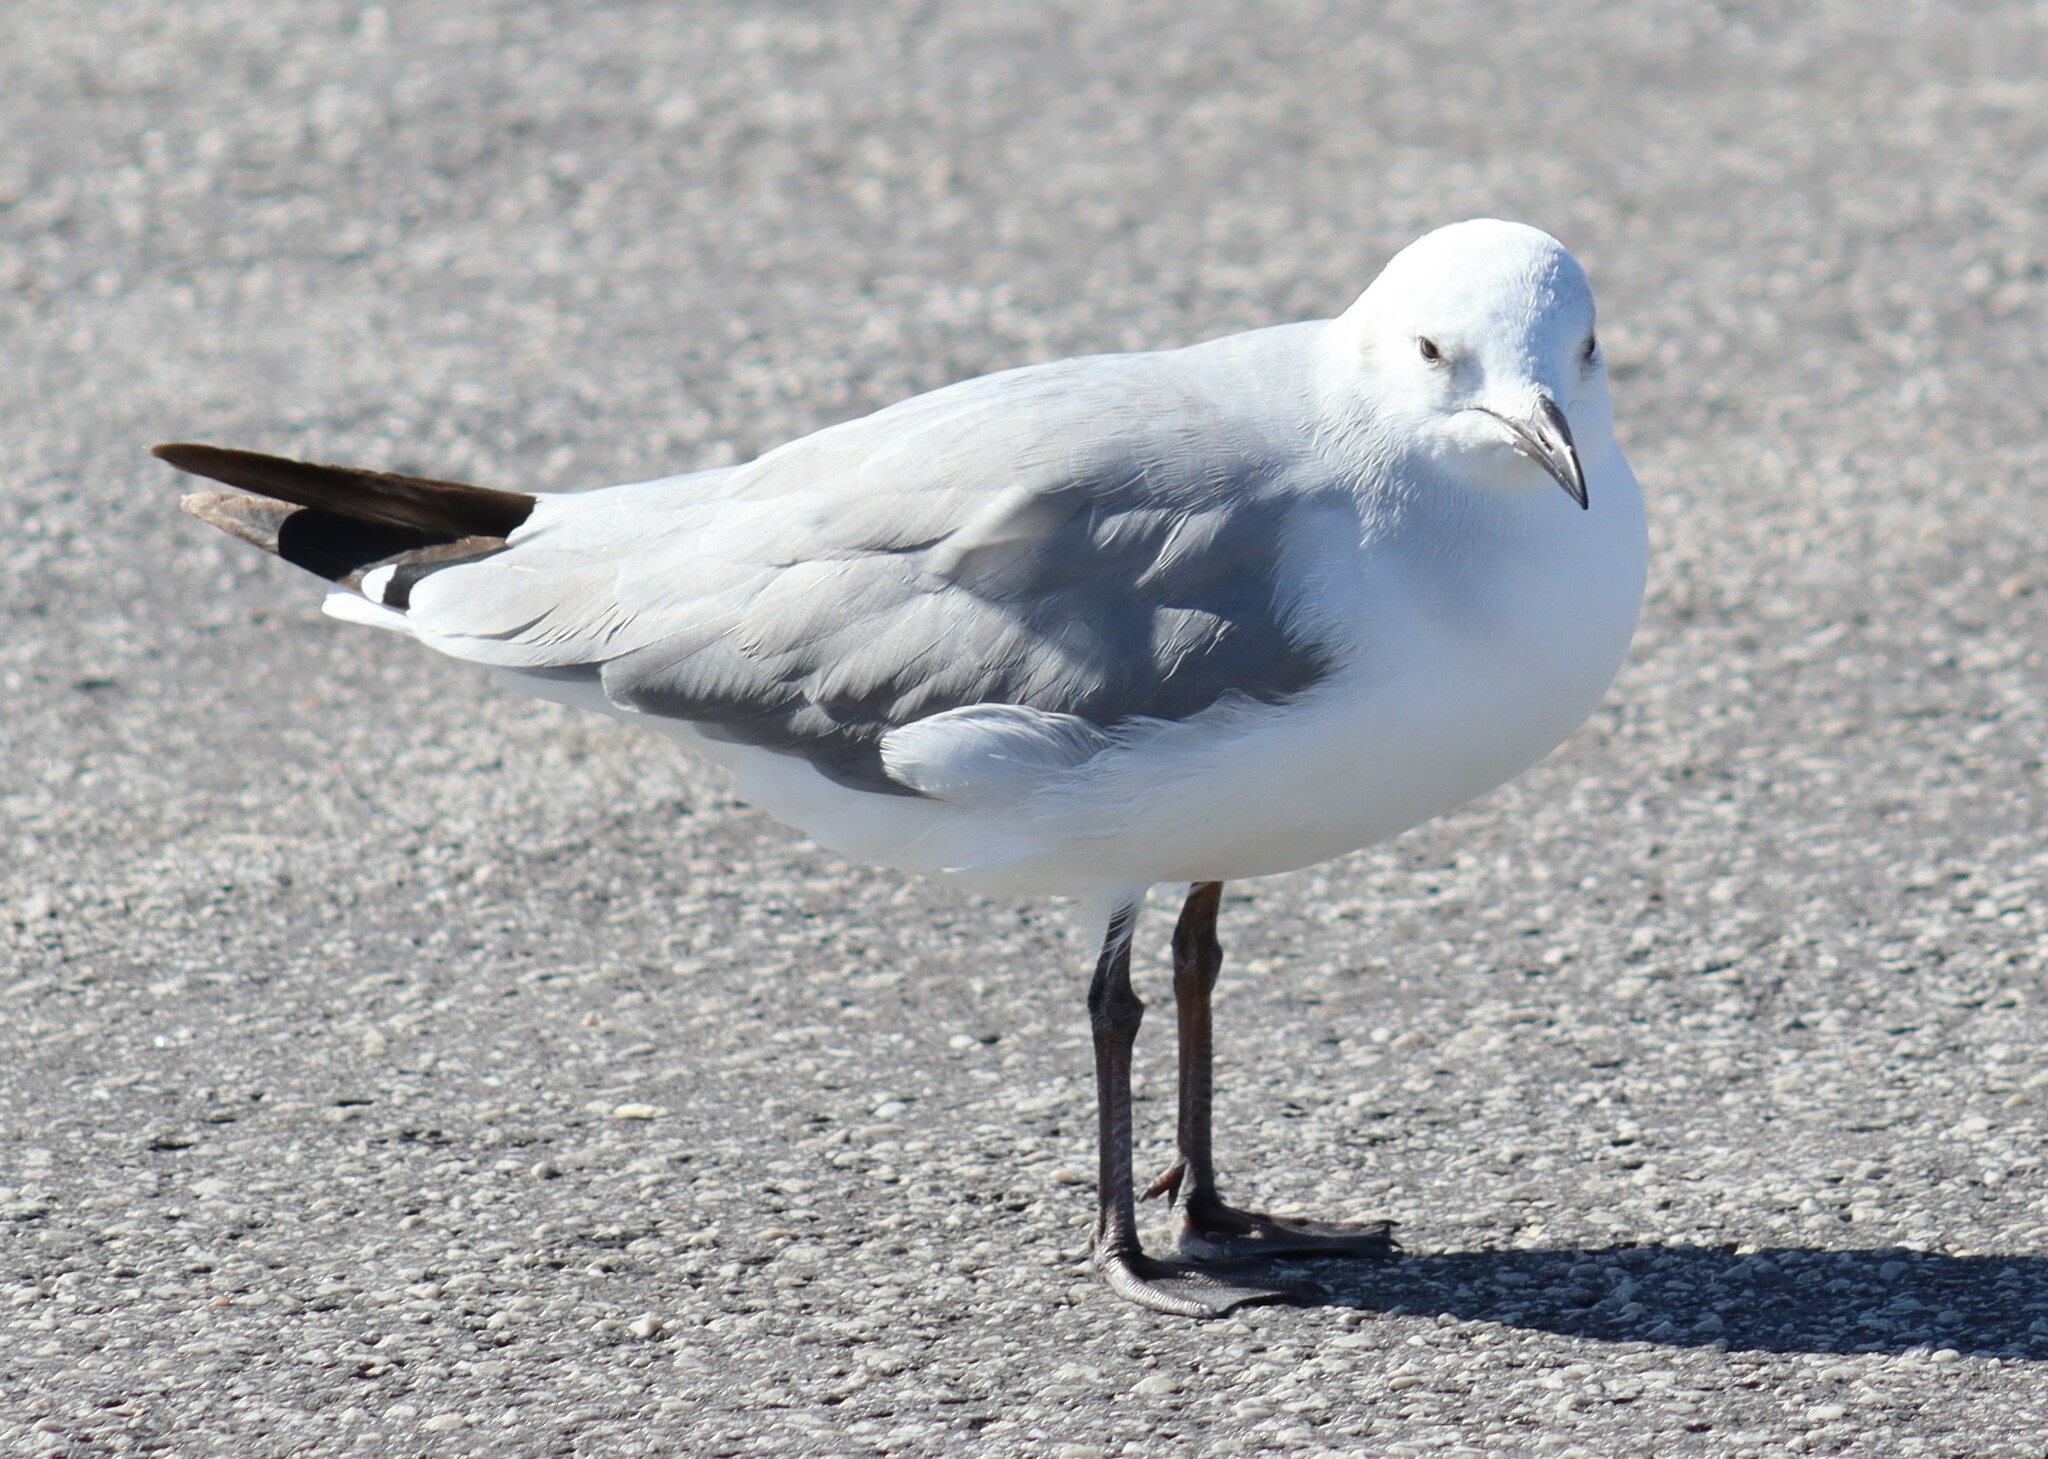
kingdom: Animalia
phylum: Chordata
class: Aves
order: Charadriiformes
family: Laridae
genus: Chroicocephalus
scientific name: Chroicocephalus cirrocephalus
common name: Grey-headed gull
